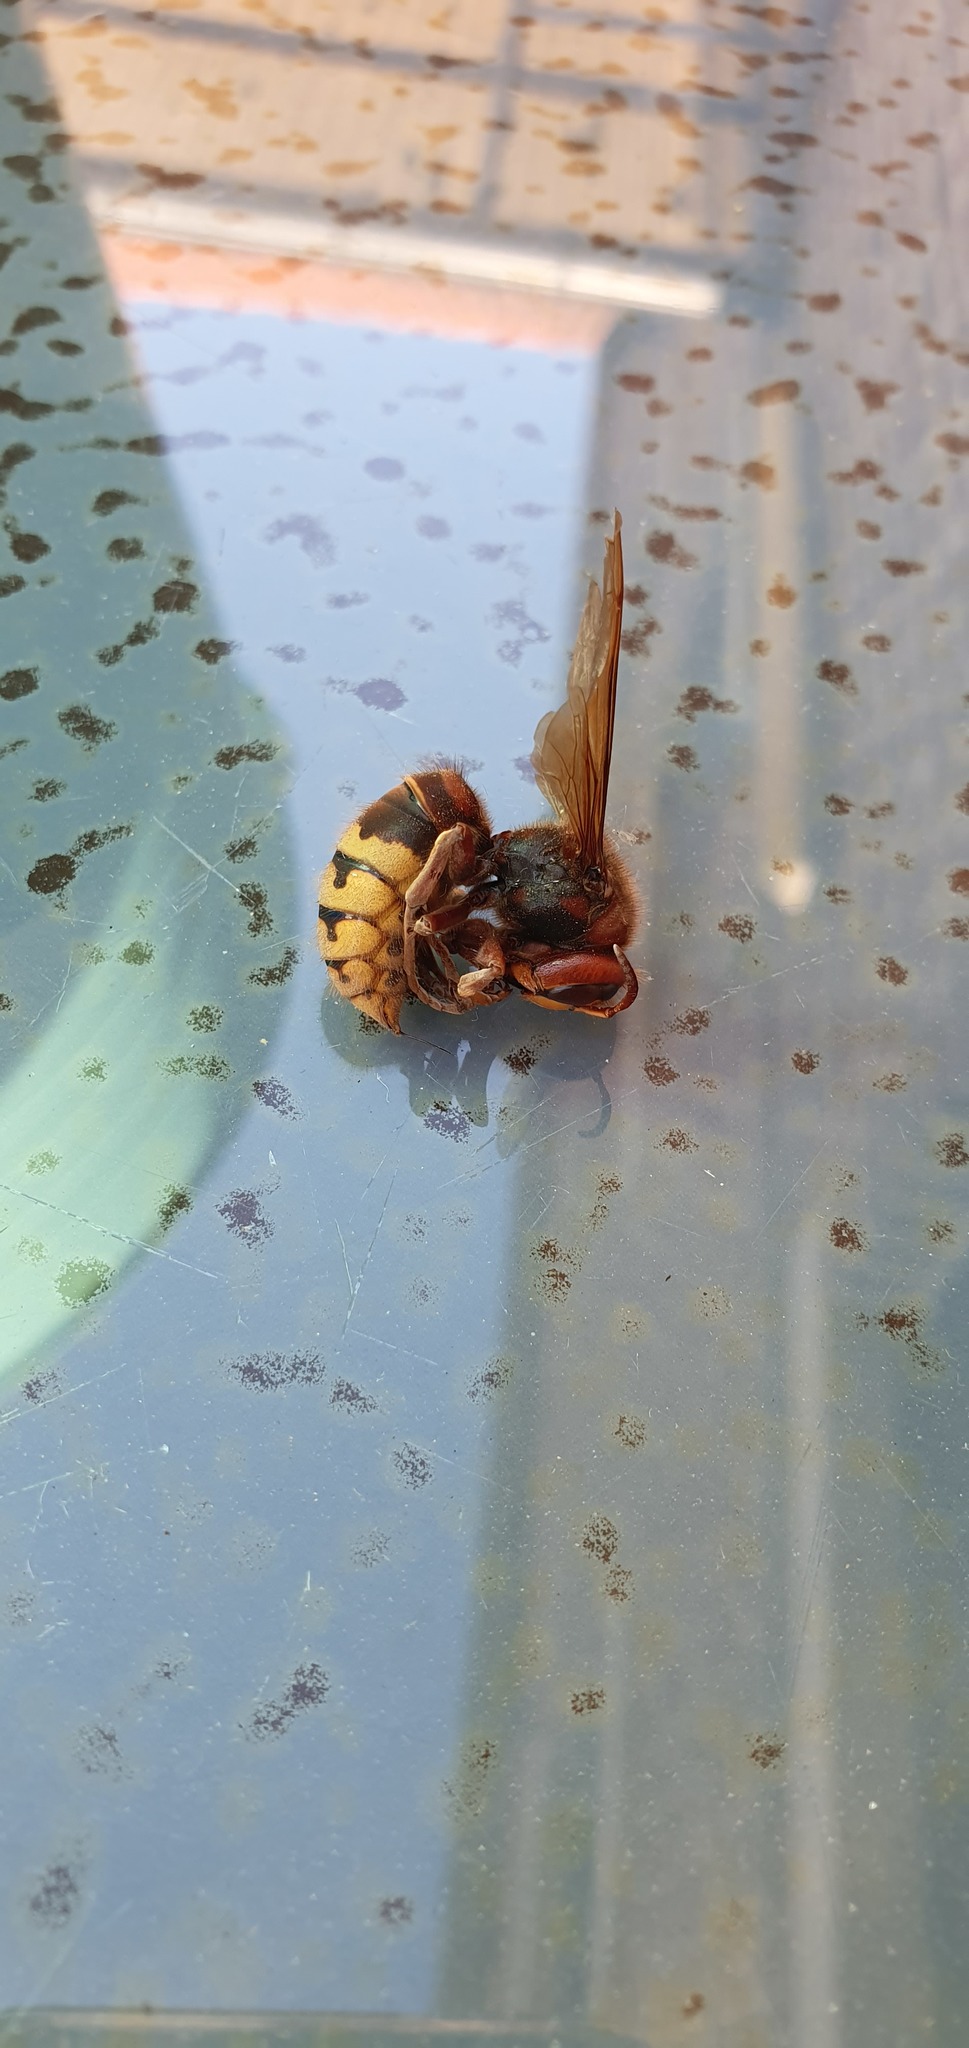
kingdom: Animalia
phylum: Arthropoda
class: Insecta
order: Hymenoptera
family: Vespidae
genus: Vespa
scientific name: Vespa crabro
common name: Hornet
